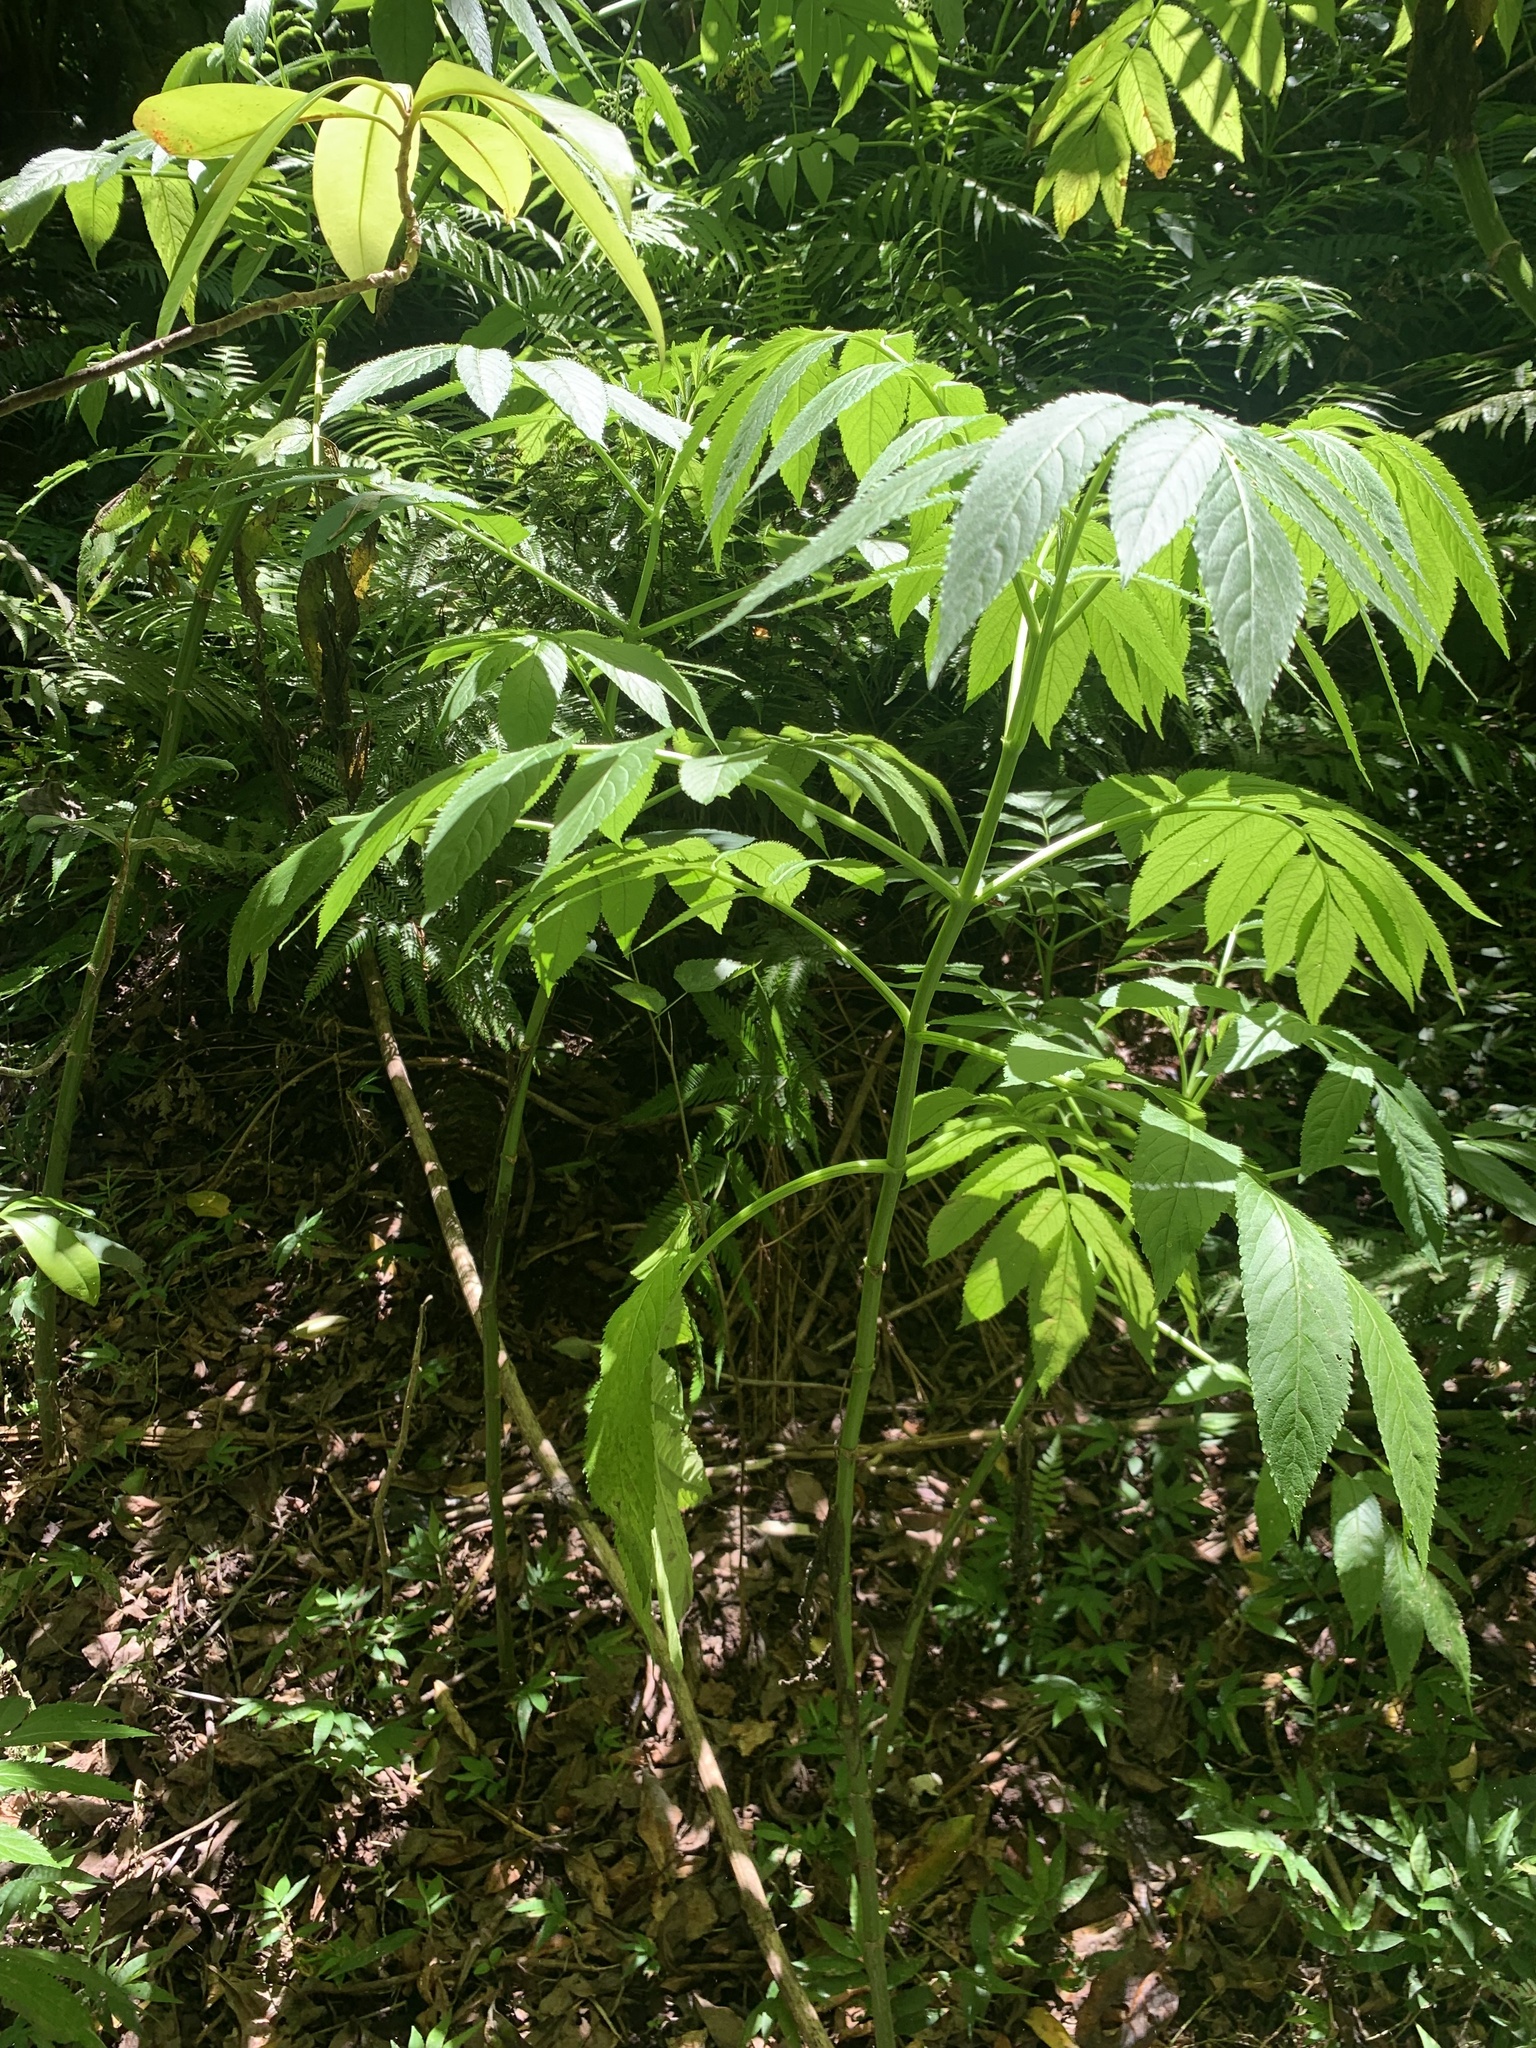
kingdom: Plantae
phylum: Tracheophyta
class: Magnoliopsida
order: Dipsacales
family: Viburnaceae
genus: Sambucus
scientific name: Sambucus javanica
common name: Chinese elder
